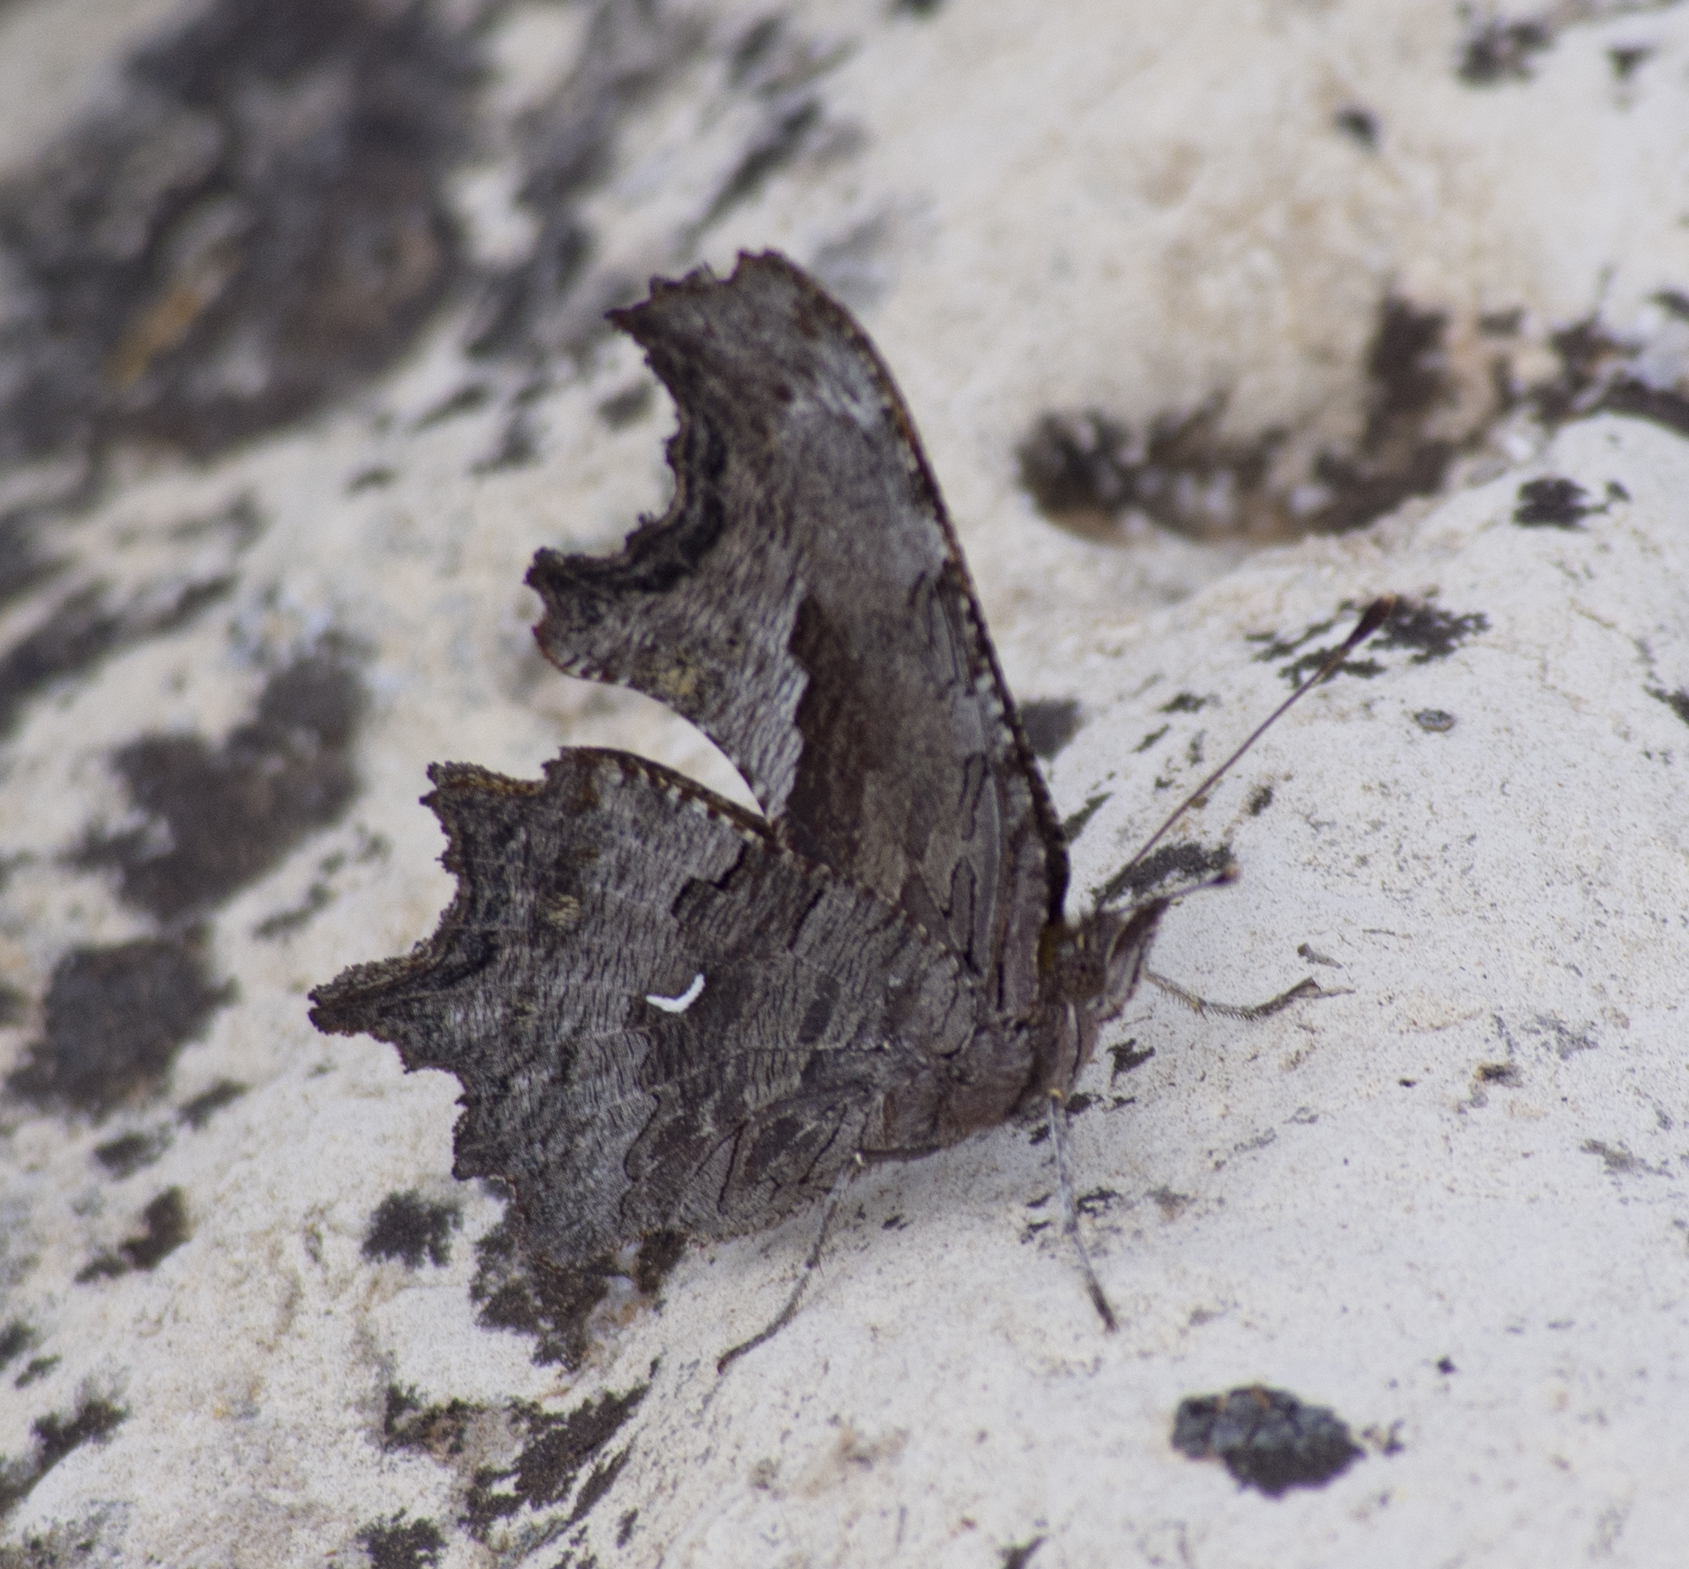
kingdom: Animalia
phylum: Arthropoda
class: Insecta
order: Lepidoptera
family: Nymphalidae
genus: Polygonia
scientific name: Polygonia gracilis
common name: Hoary comma
